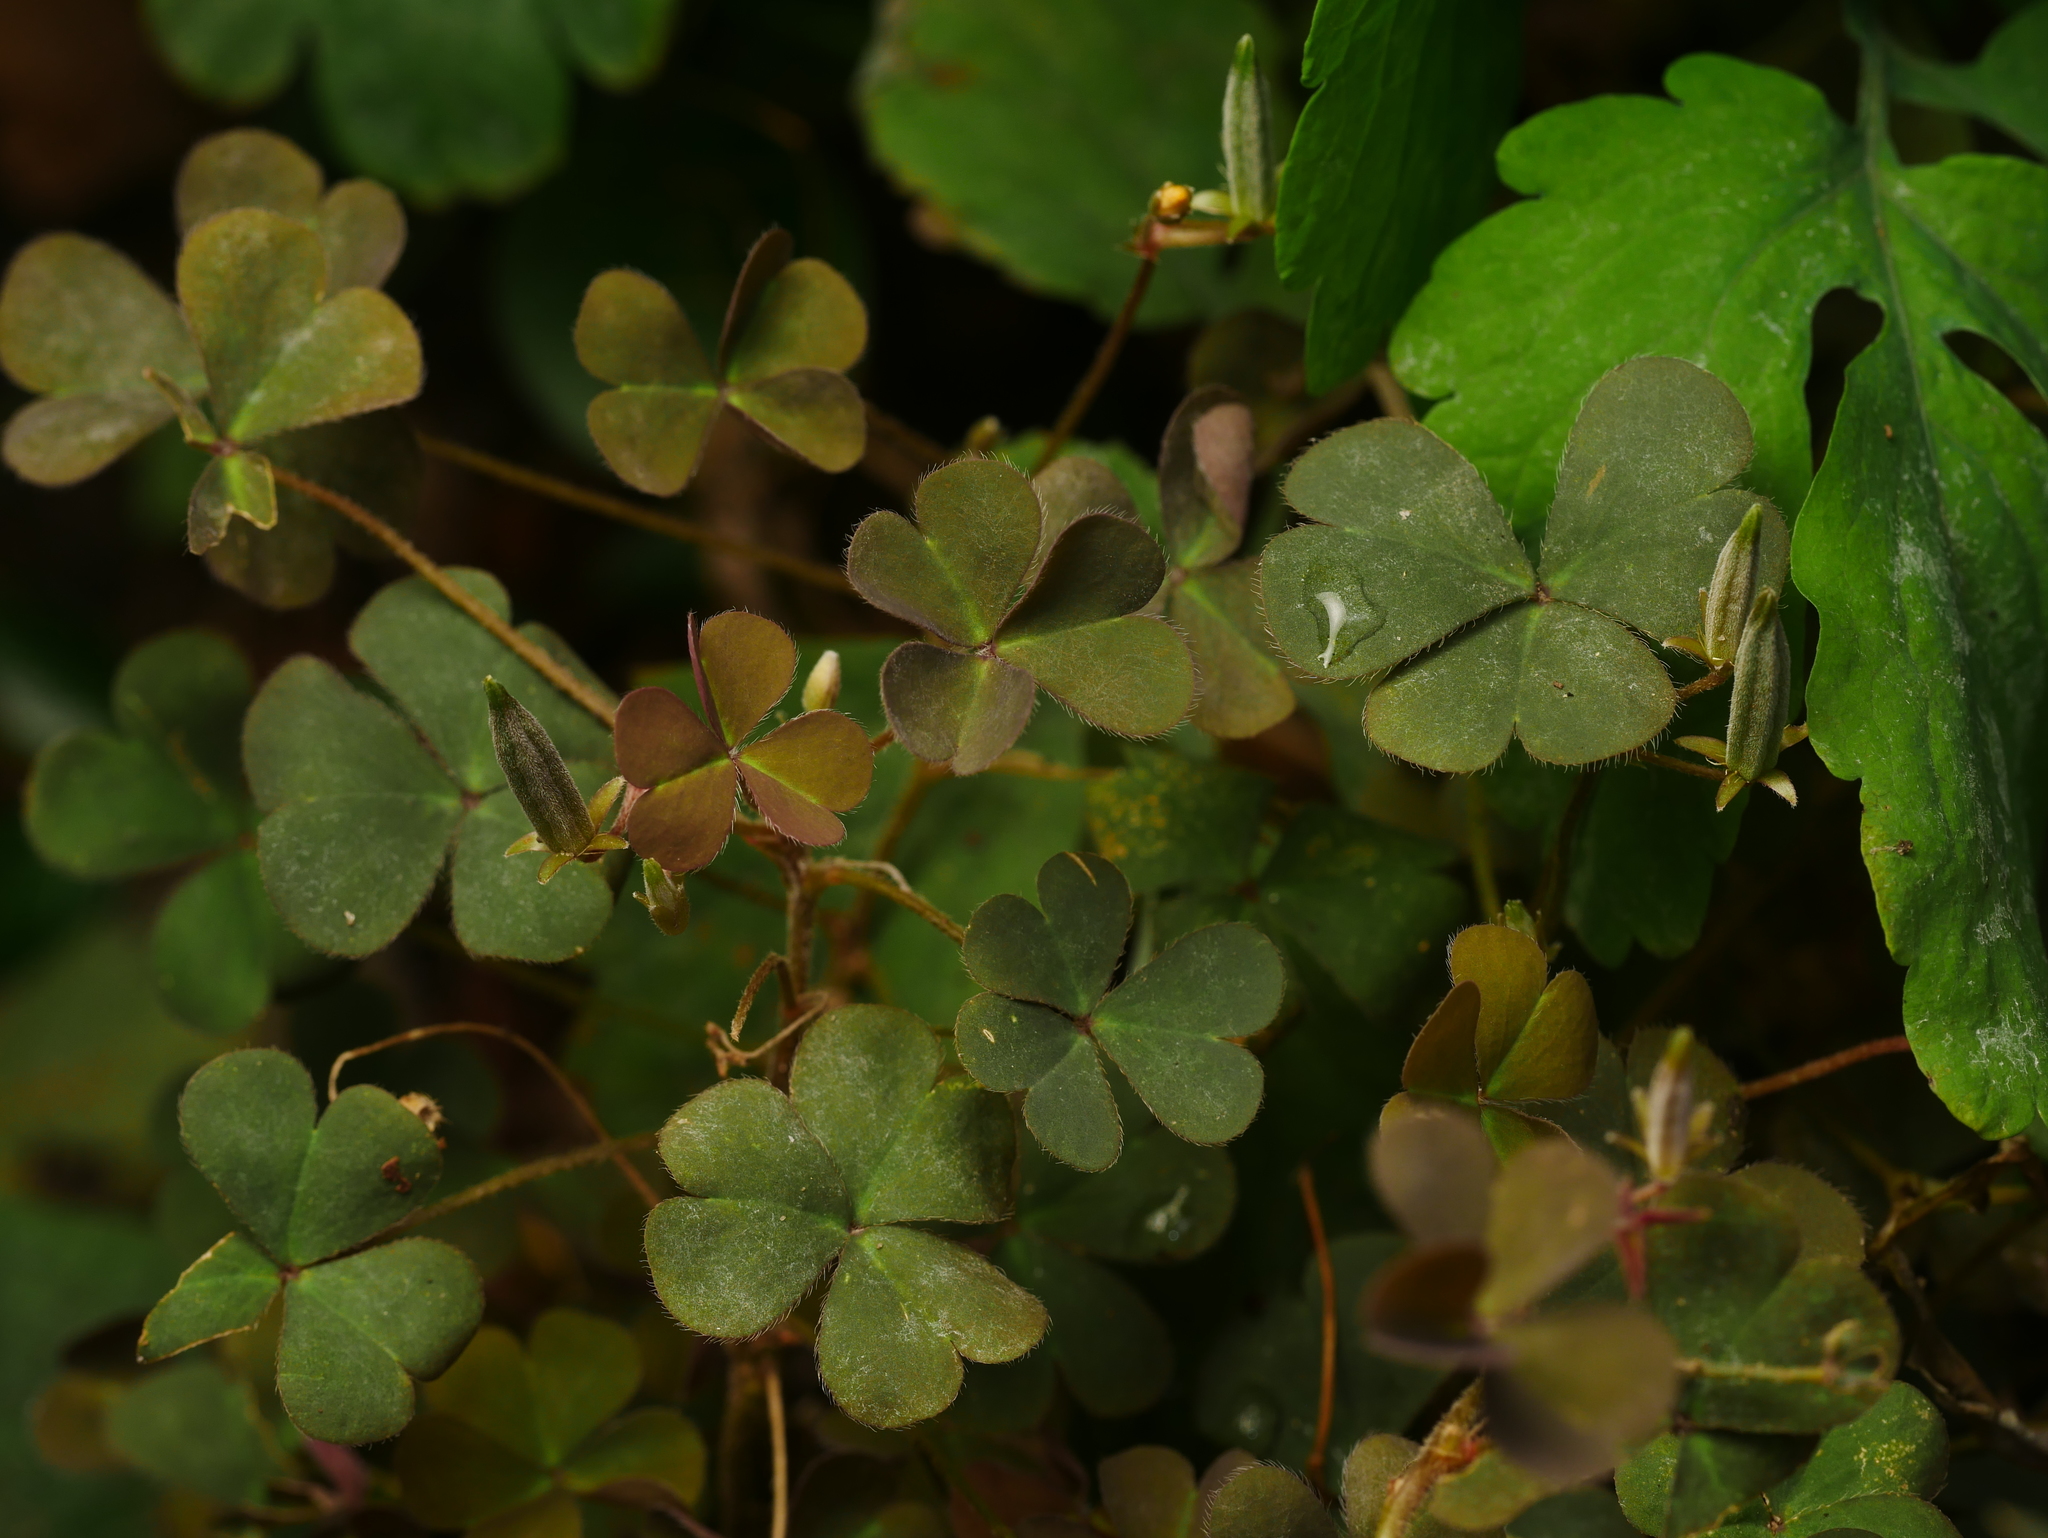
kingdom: Plantae
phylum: Tracheophyta
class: Magnoliopsida
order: Oxalidales
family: Oxalidaceae
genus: Oxalis
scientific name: Oxalis corniculata
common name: Procumbent yellow-sorrel
